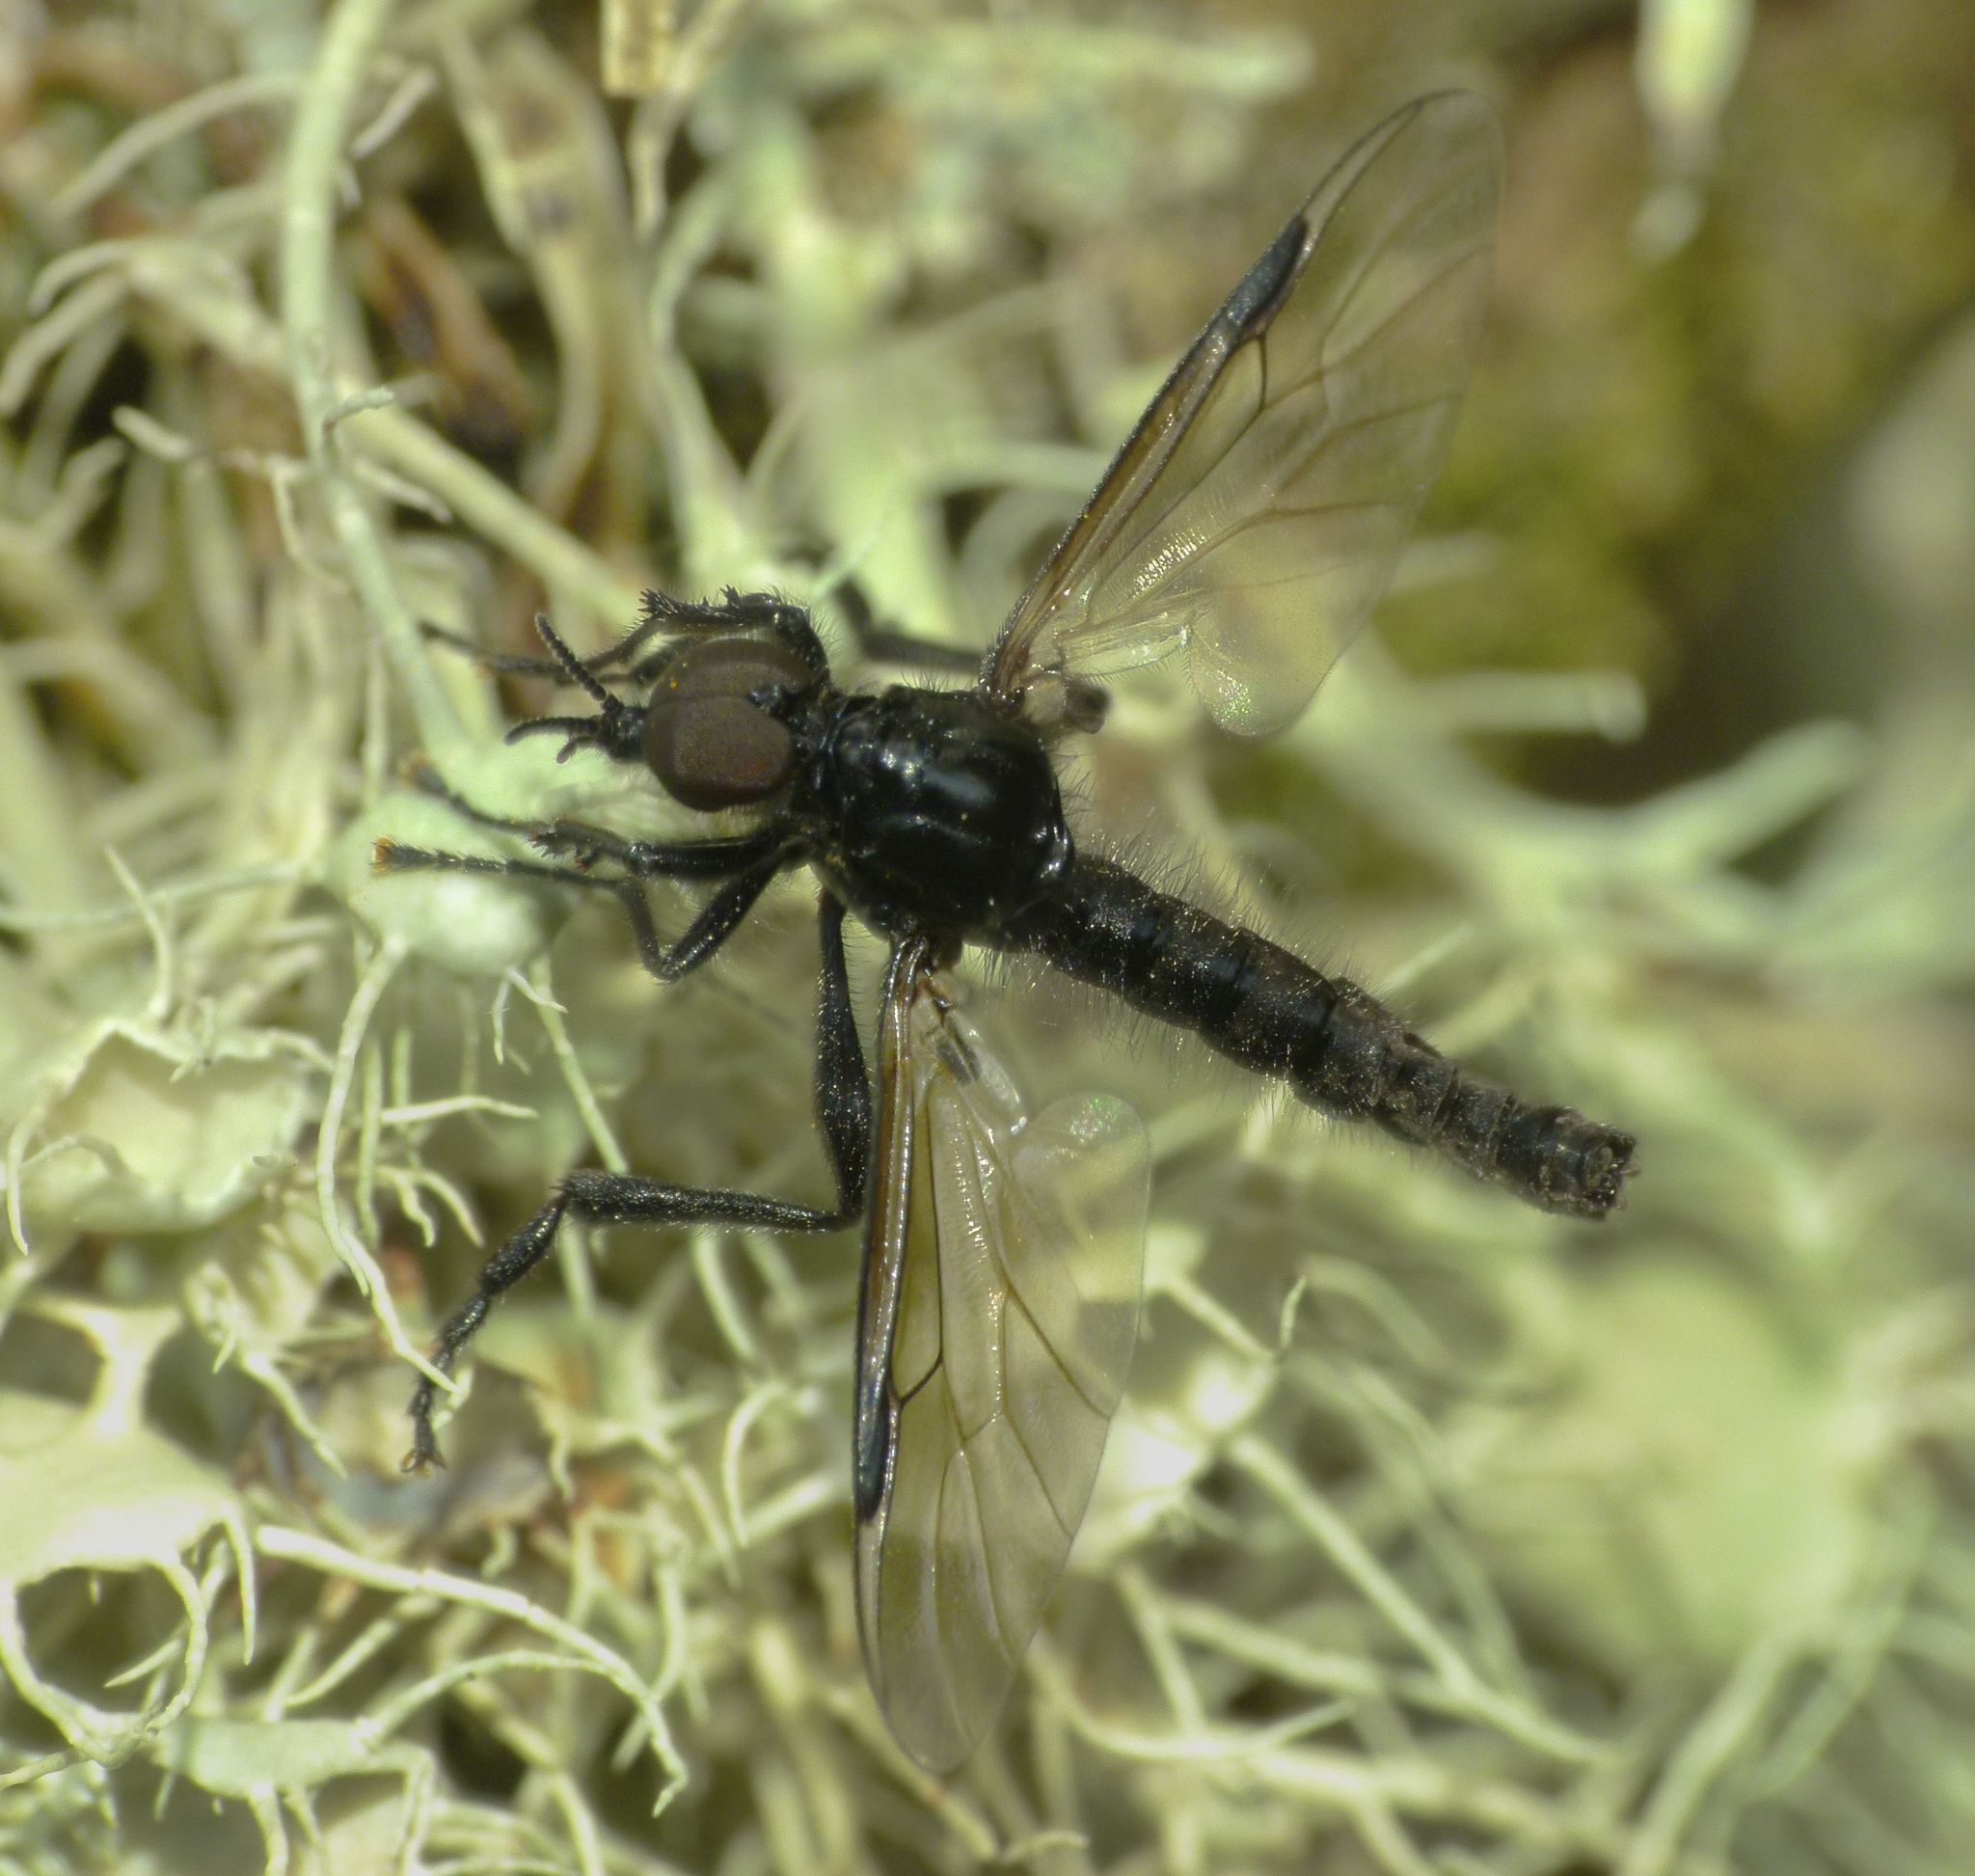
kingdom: Animalia
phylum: Arthropoda
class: Insecta
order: Diptera
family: Bibionidae
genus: Dilophus
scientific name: Dilophus nigrostigma
